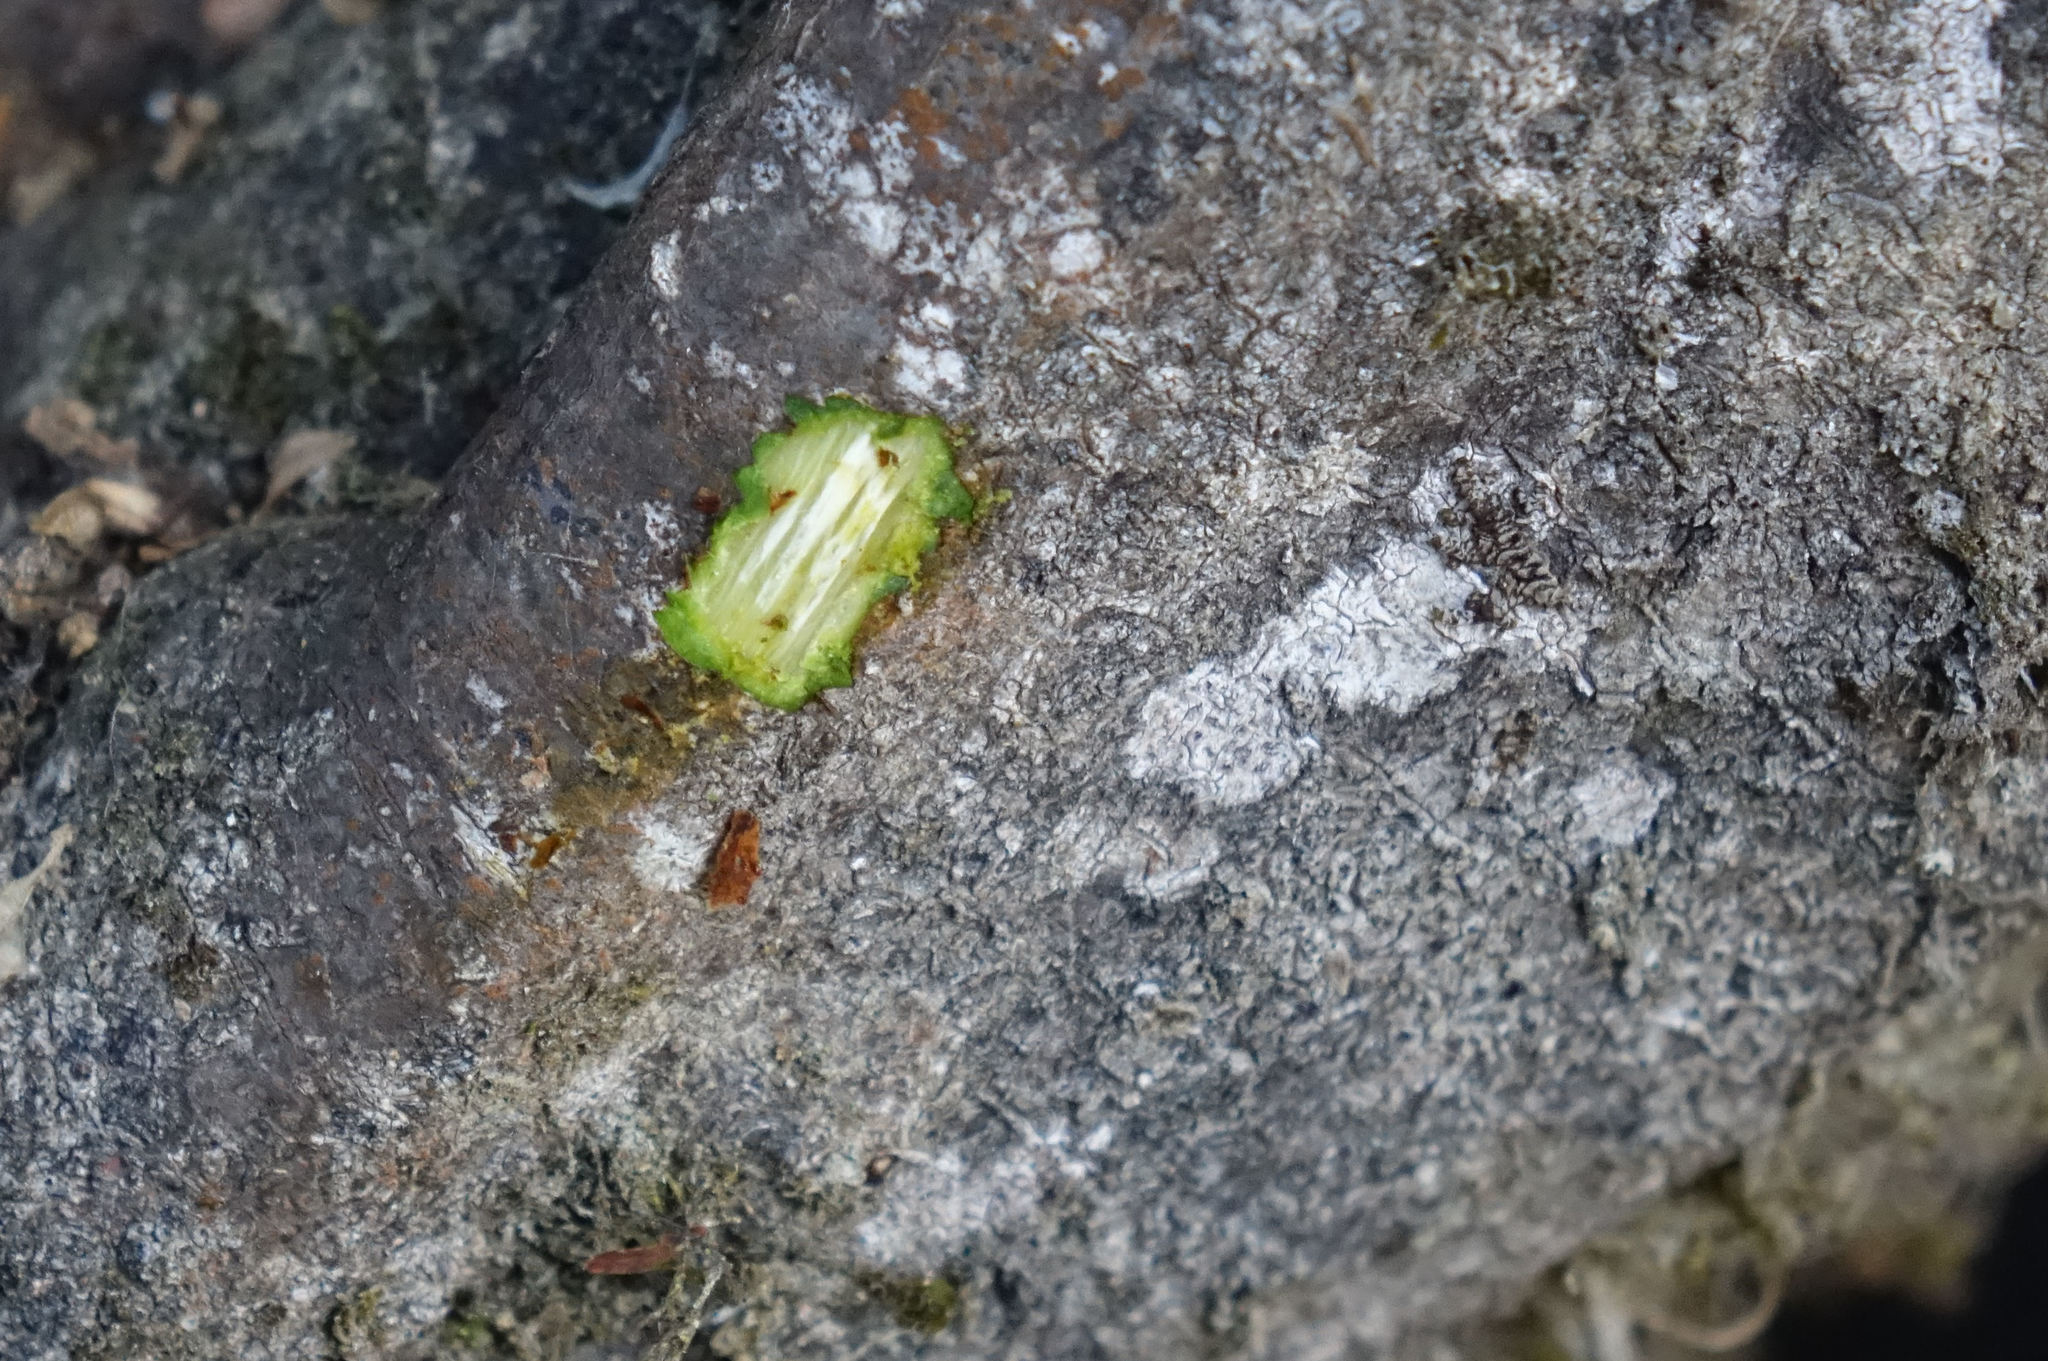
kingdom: Plantae
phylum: Tracheophyta
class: Magnoliopsida
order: Gentianales
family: Rubiaceae
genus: Coprosma
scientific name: Coprosma rigida
